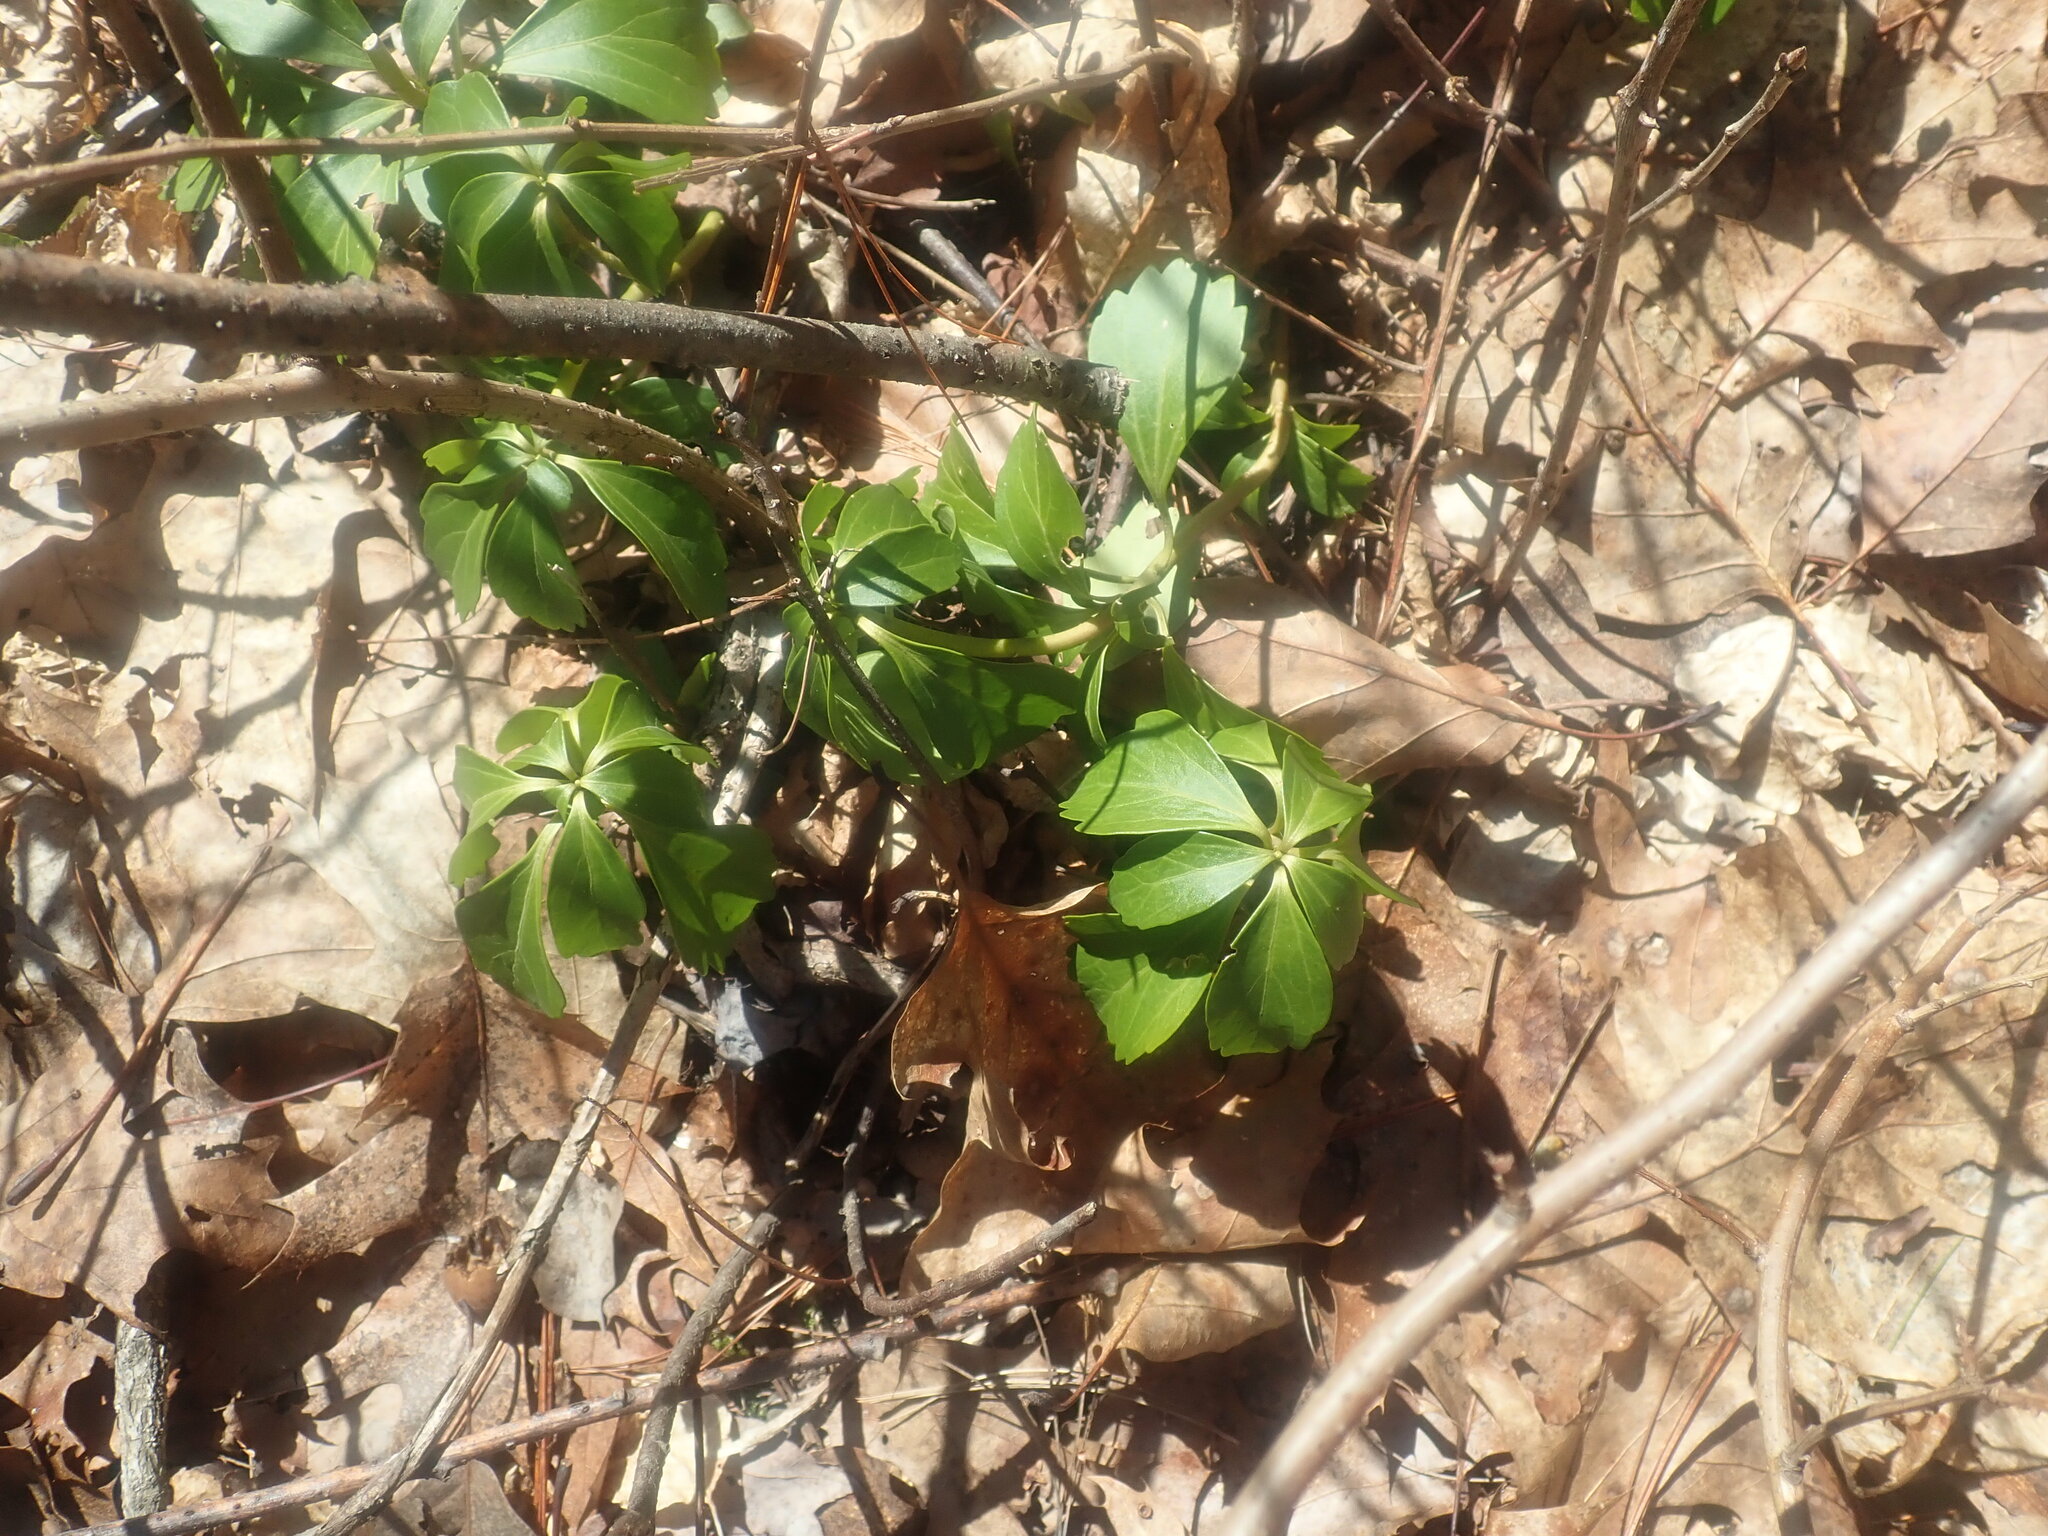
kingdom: Plantae
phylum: Tracheophyta
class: Magnoliopsida
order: Buxales
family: Buxaceae
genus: Pachysandra
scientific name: Pachysandra terminalis
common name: Japanese pachysandra
